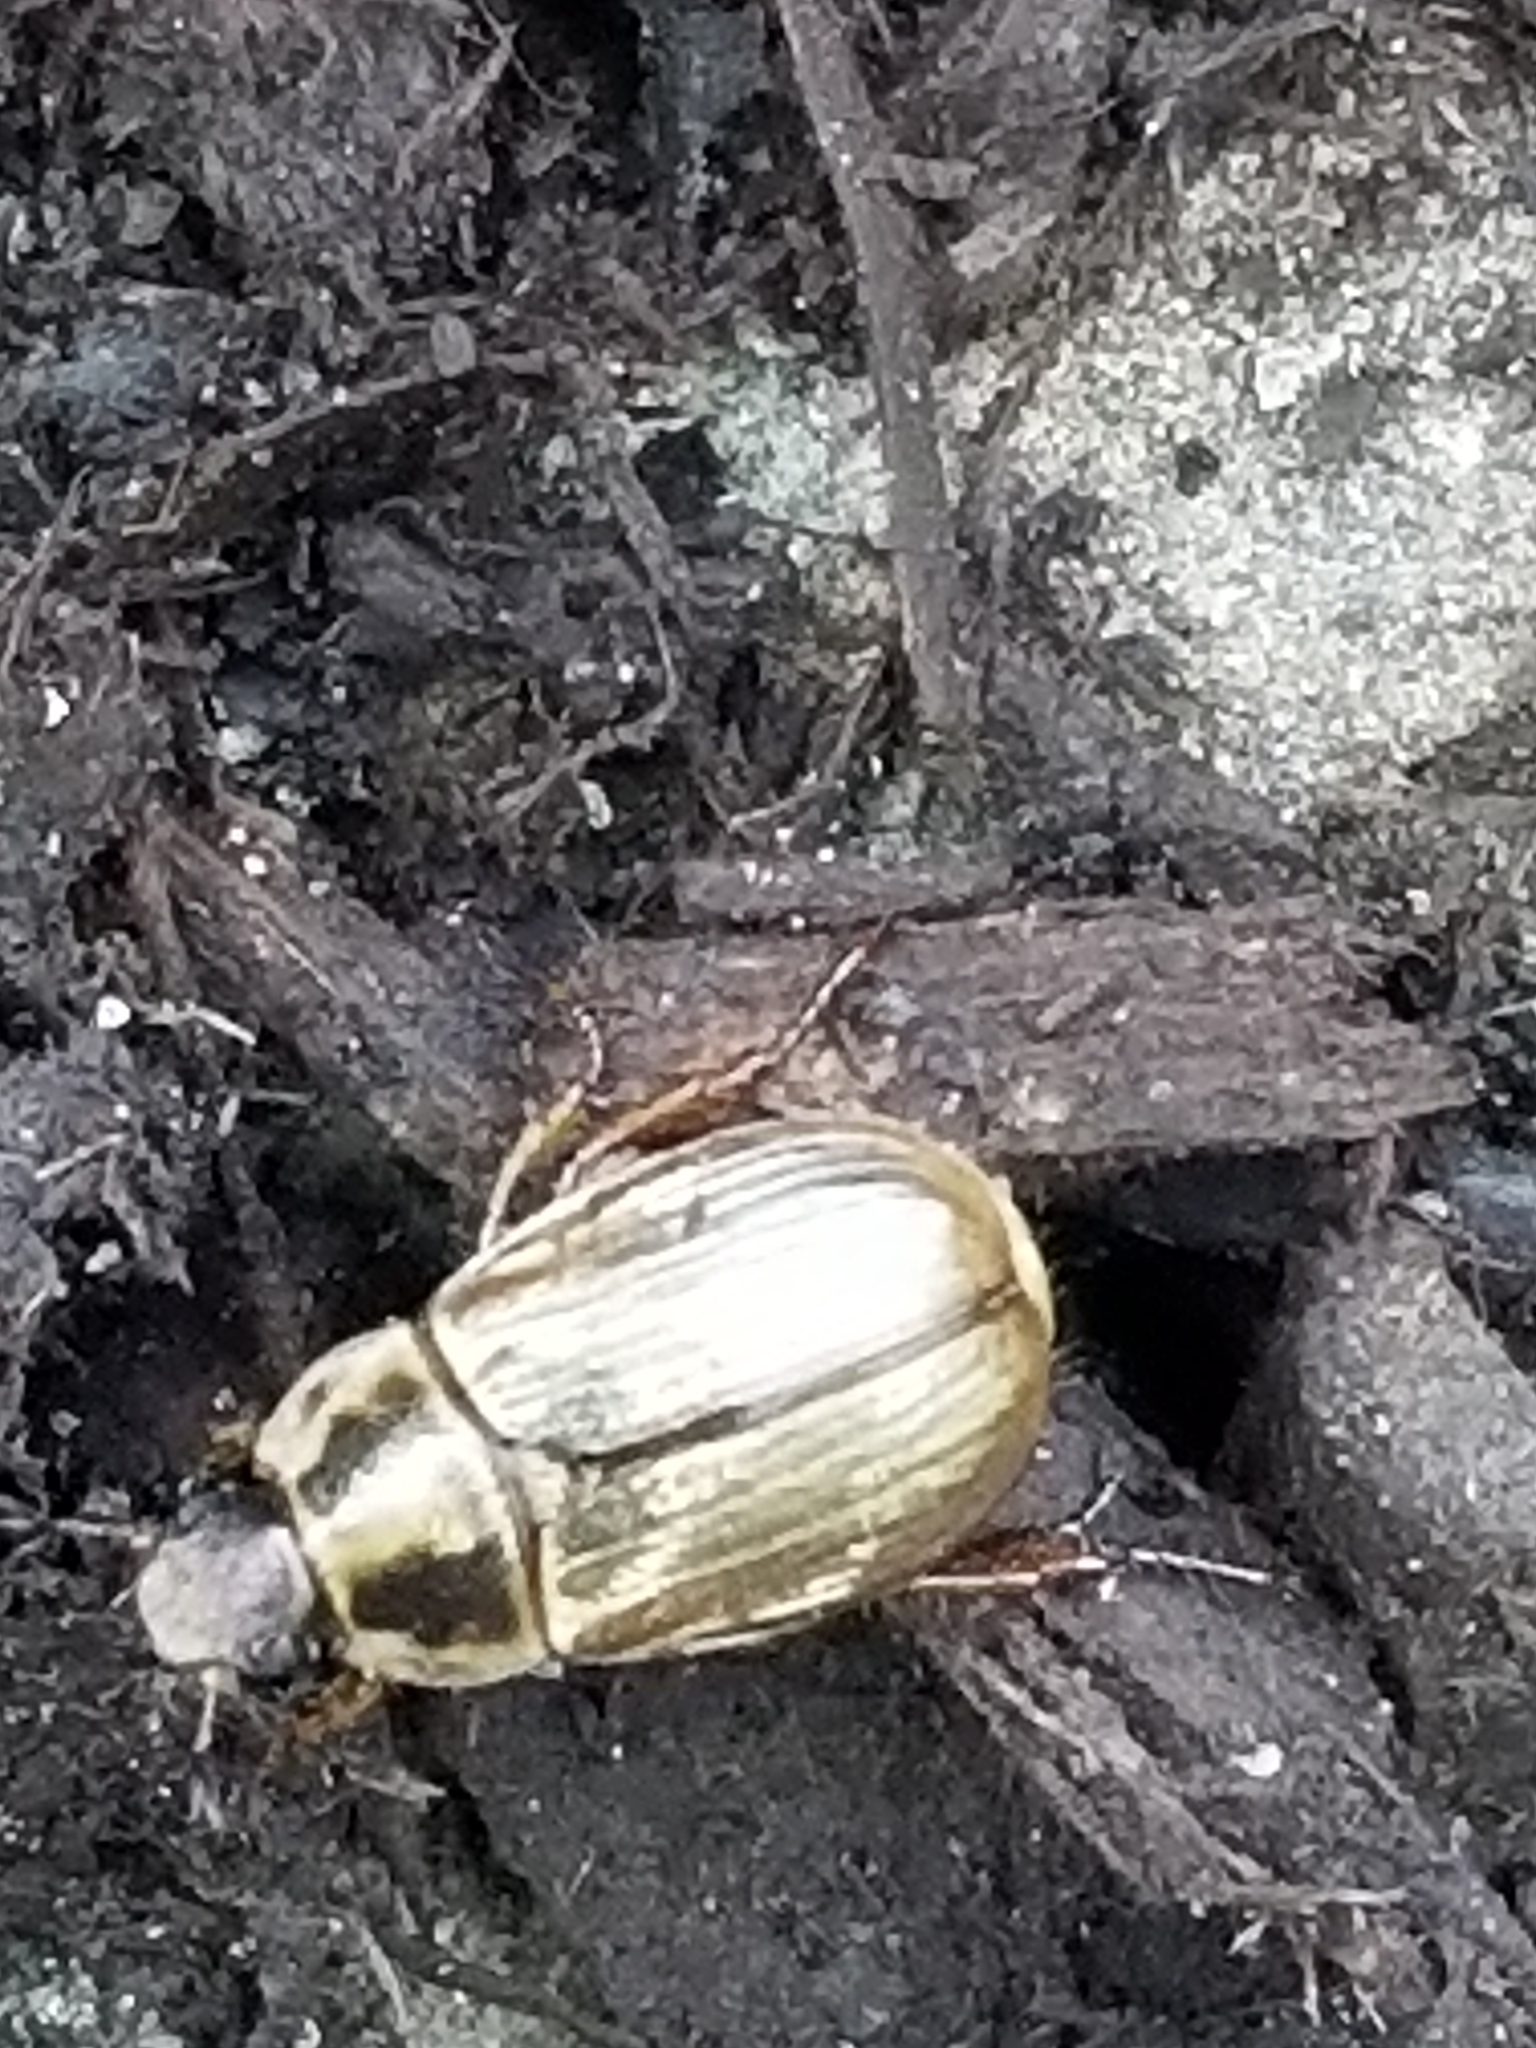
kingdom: Animalia
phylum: Arthropoda
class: Insecta
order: Coleoptera
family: Scarabaeidae
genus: Exomala
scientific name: Exomala orientalis
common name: Oriental beetle
